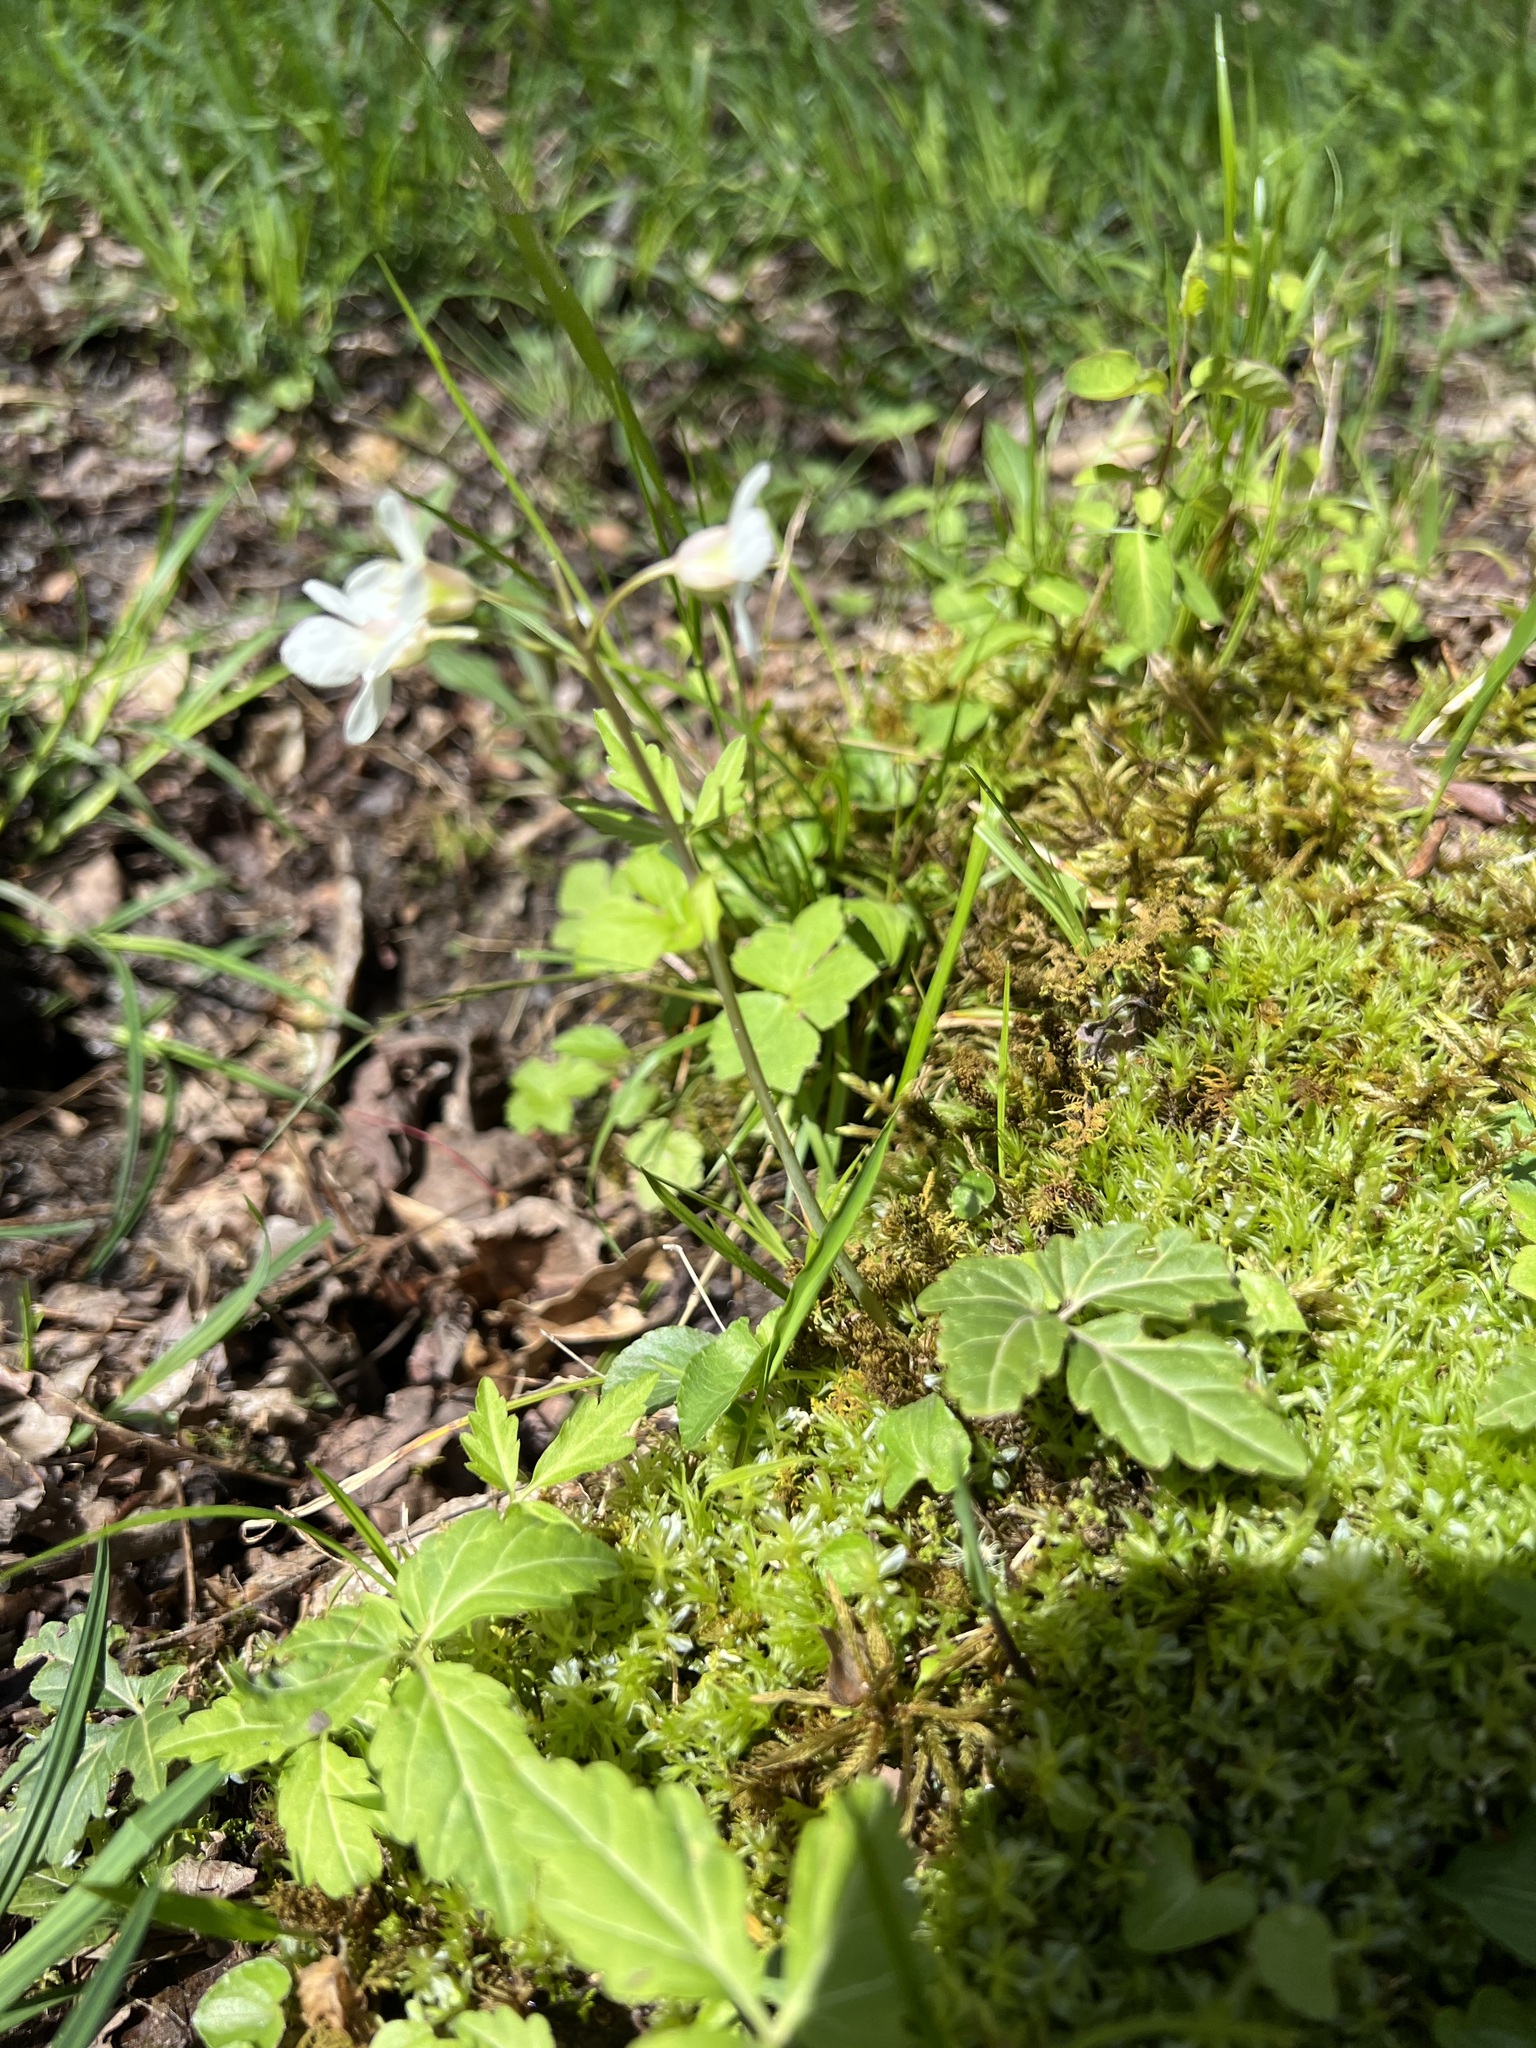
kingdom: Plantae
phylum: Tracheophyta
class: Magnoliopsida
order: Brassicales
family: Brassicaceae
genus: Cardamine
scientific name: Cardamine diphylla
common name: Broad-leaved toothwort
